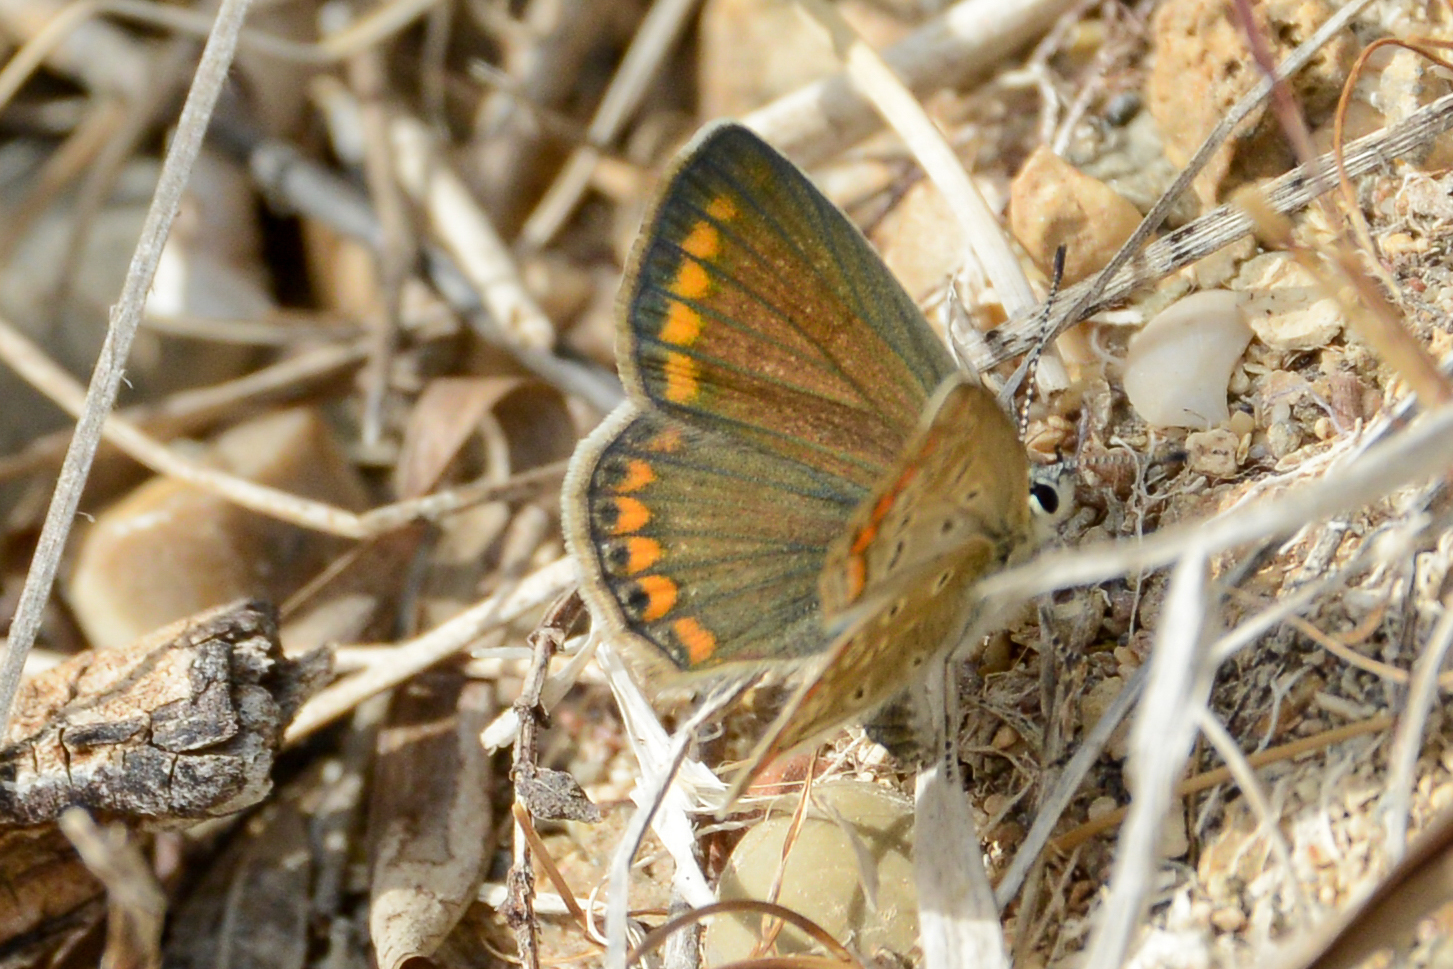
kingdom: Animalia
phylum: Arthropoda
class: Insecta
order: Lepidoptera
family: Lycaenidae
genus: Polyommatus
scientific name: Polyommatus icarus
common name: Common blue
